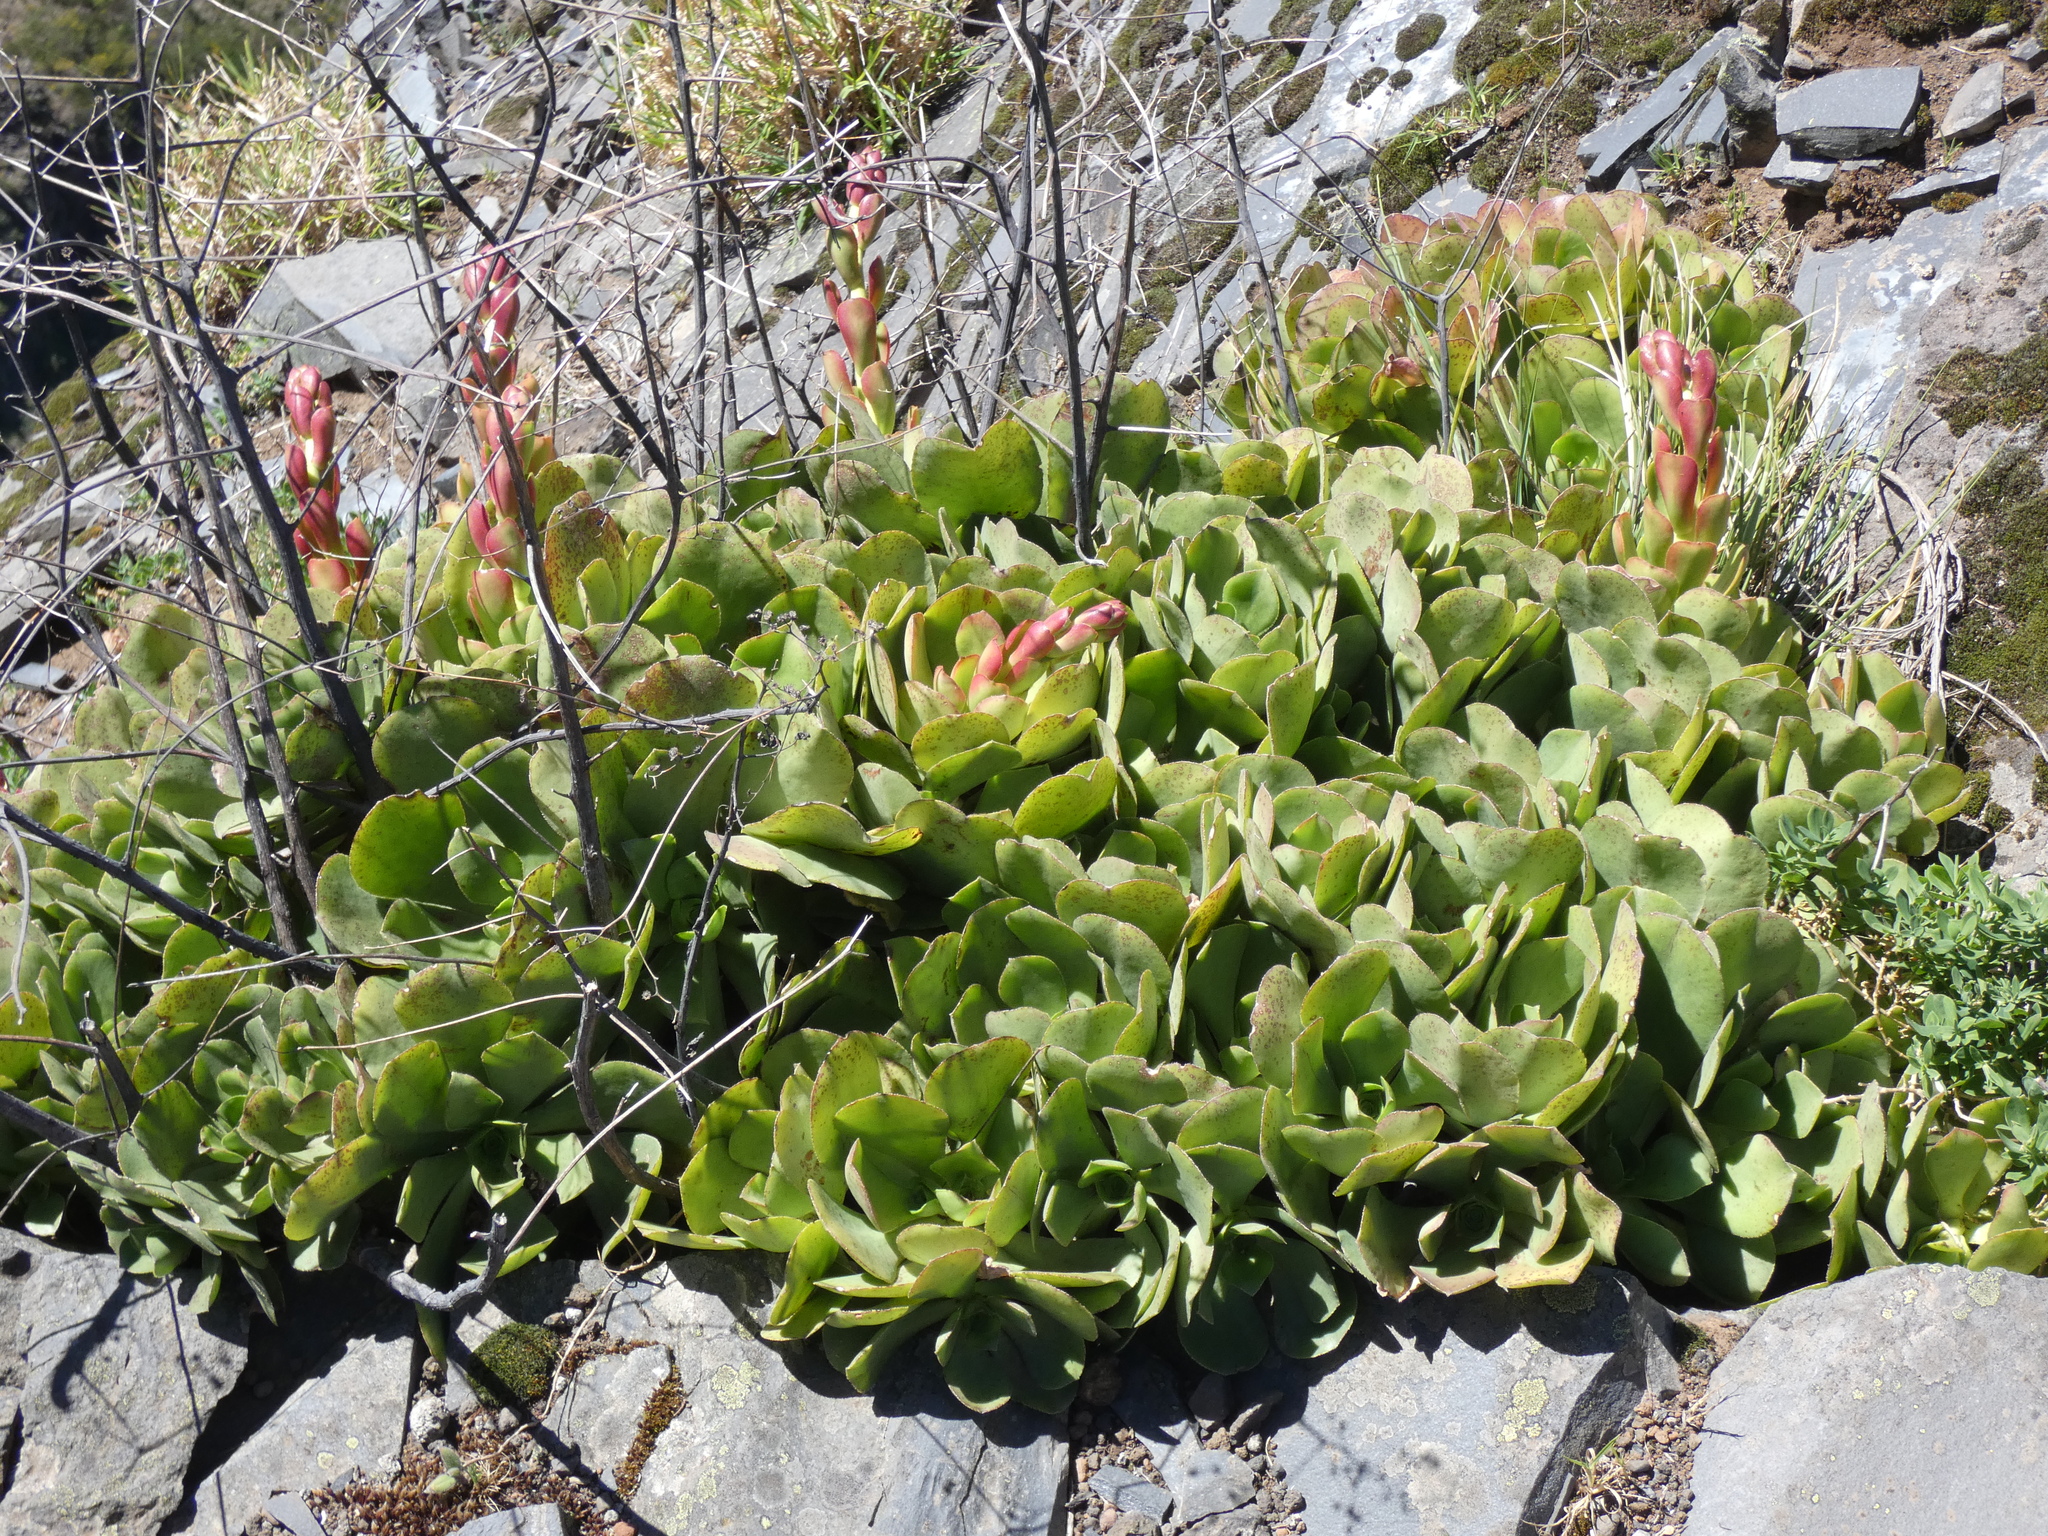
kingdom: Plantae
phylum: Tracheophyta
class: Magnoliopsida
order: Saxifragales
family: Crassulaceae
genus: Aeonium
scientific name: Aeonium glutinosum
